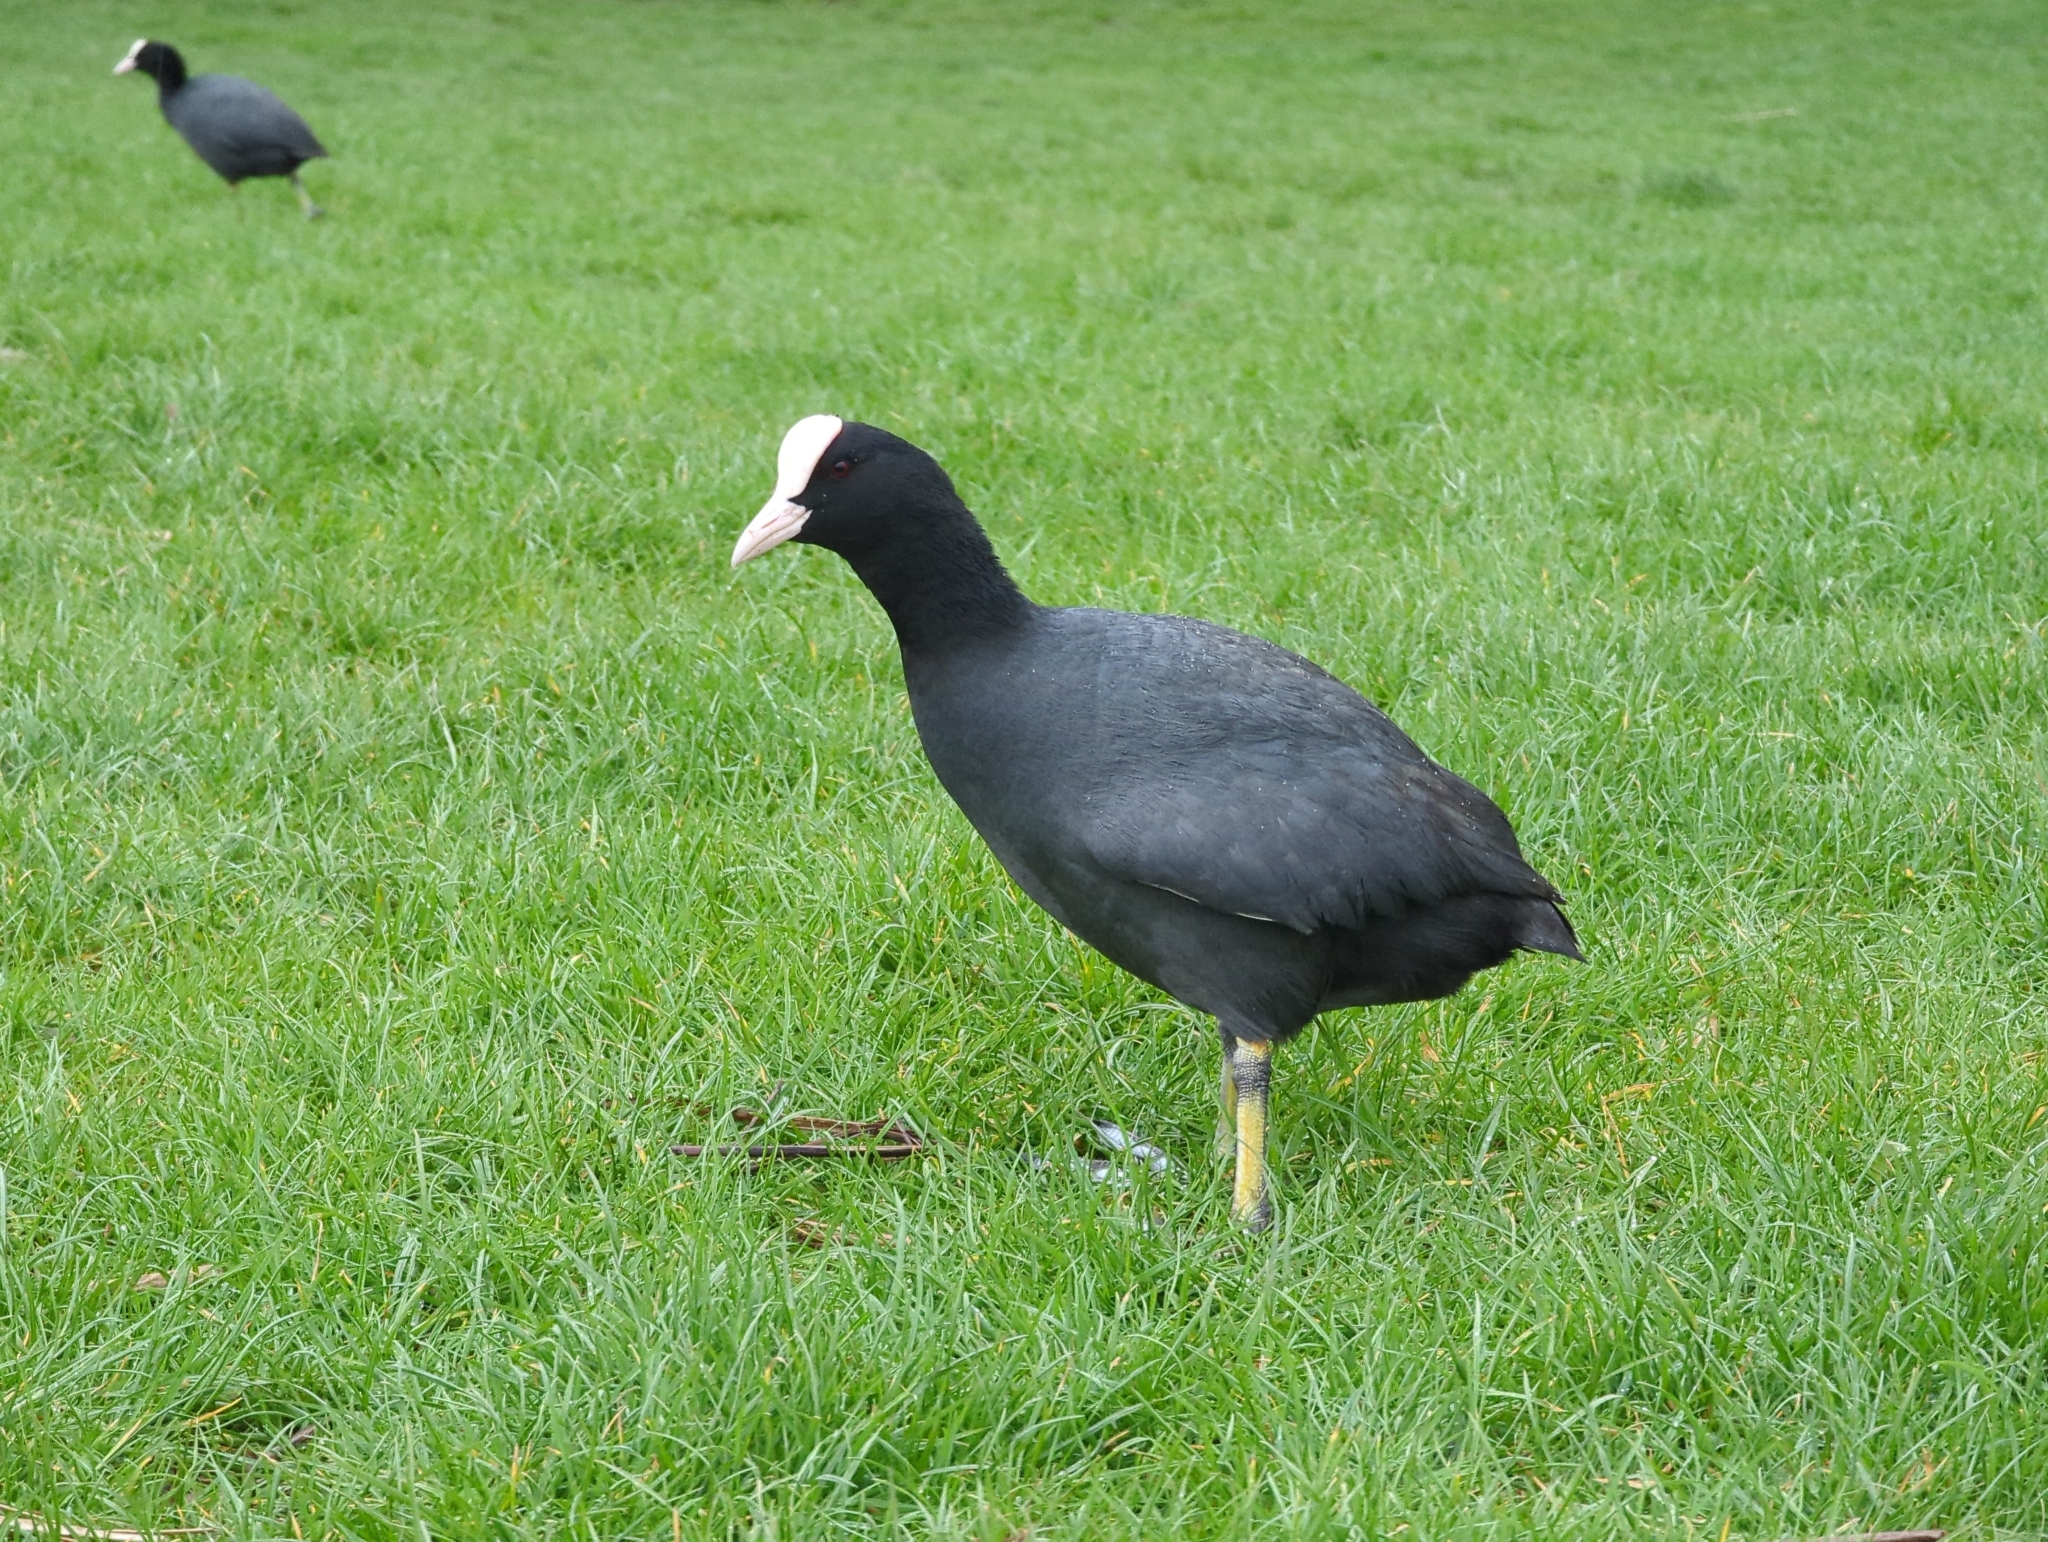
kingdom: Animalia
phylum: Chordata
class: Aves
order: Gruiformes
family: Rallidae
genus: Fulica
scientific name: Fulica atra
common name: Eurasian coot
